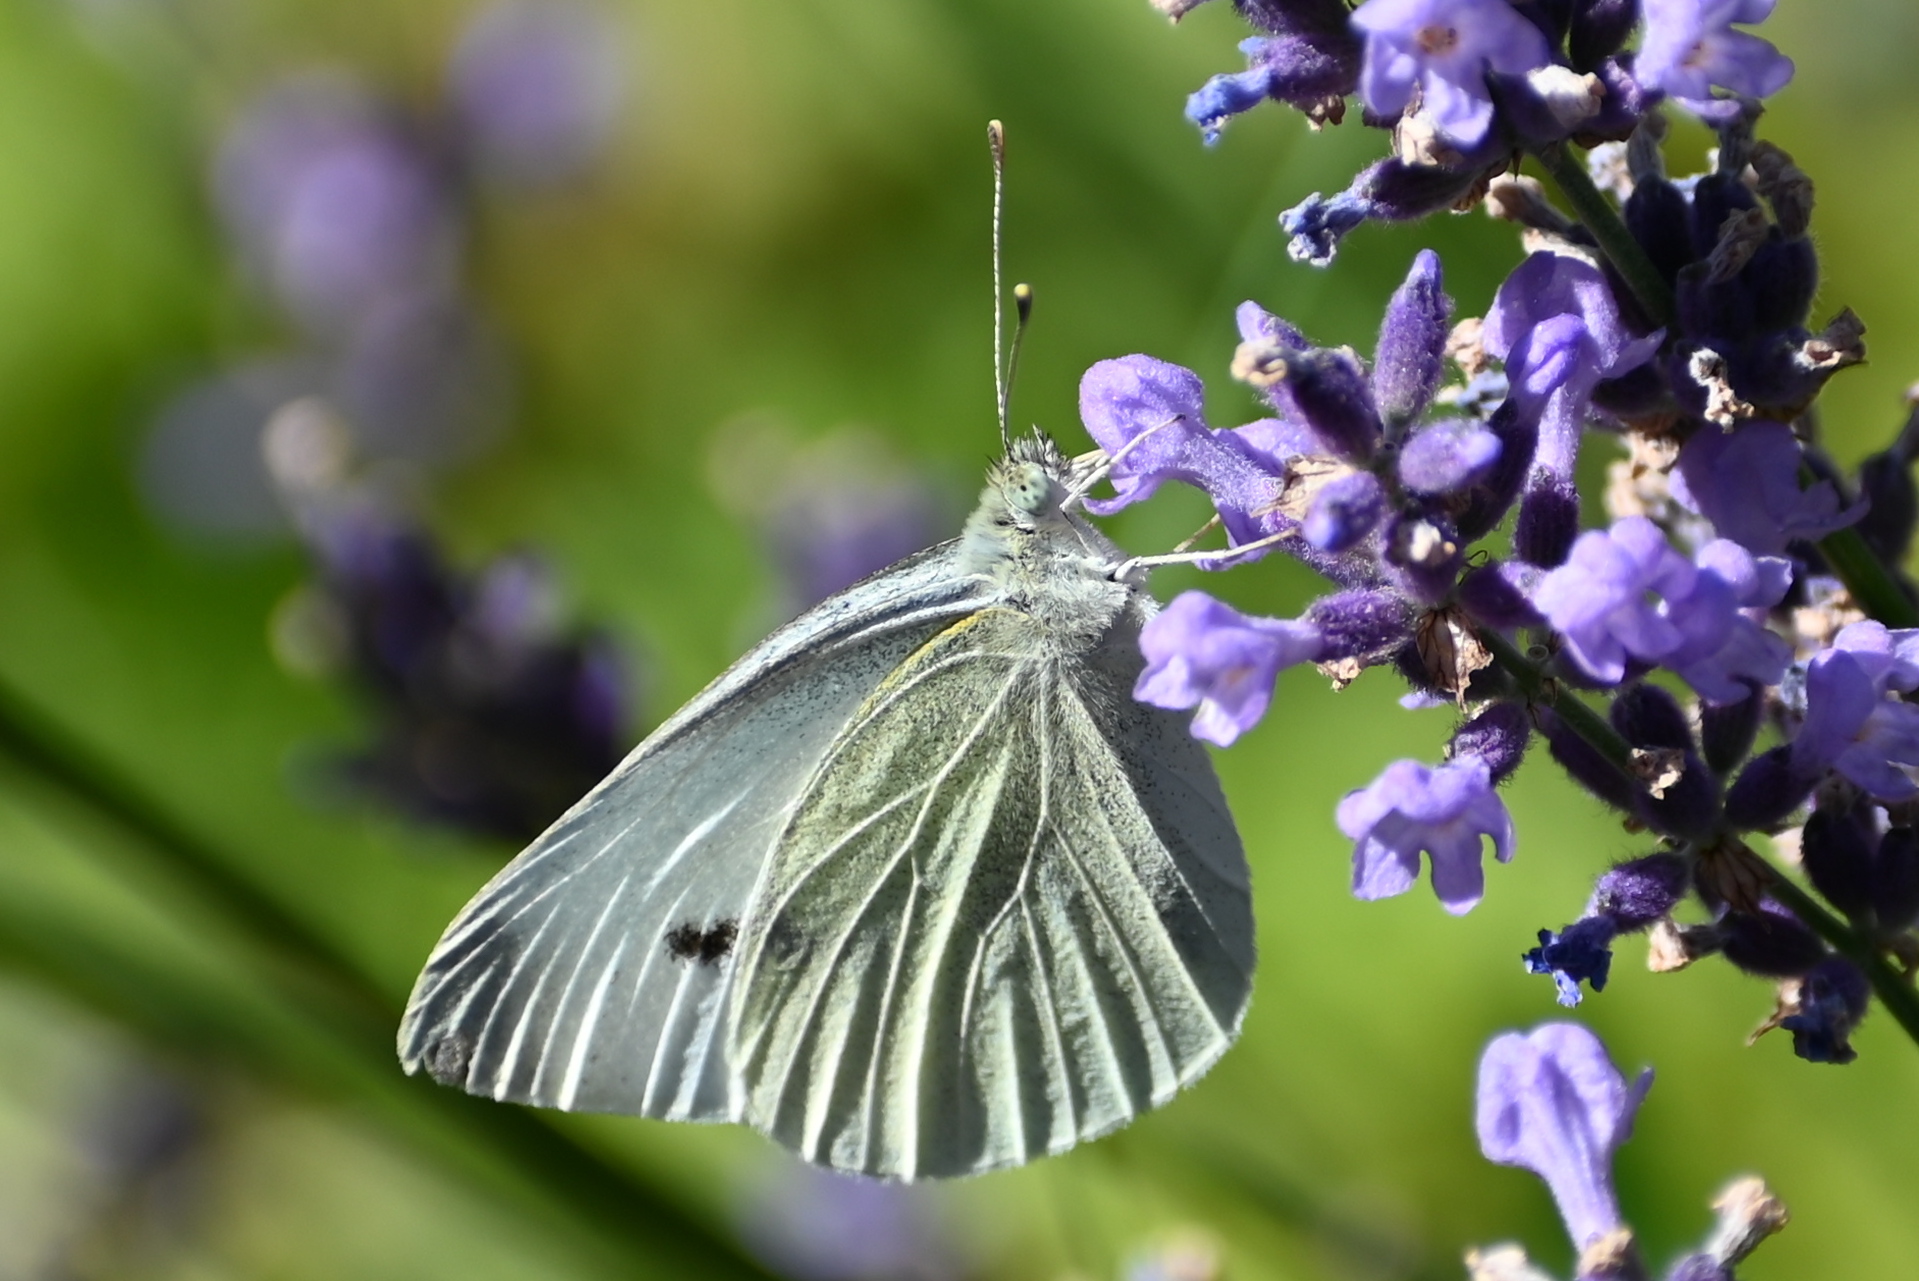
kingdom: Animalia
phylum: Arthropoda
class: Insecta
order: Lepidoptera
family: Pieridae
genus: Pieris
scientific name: Pieris rapae
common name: Small white
